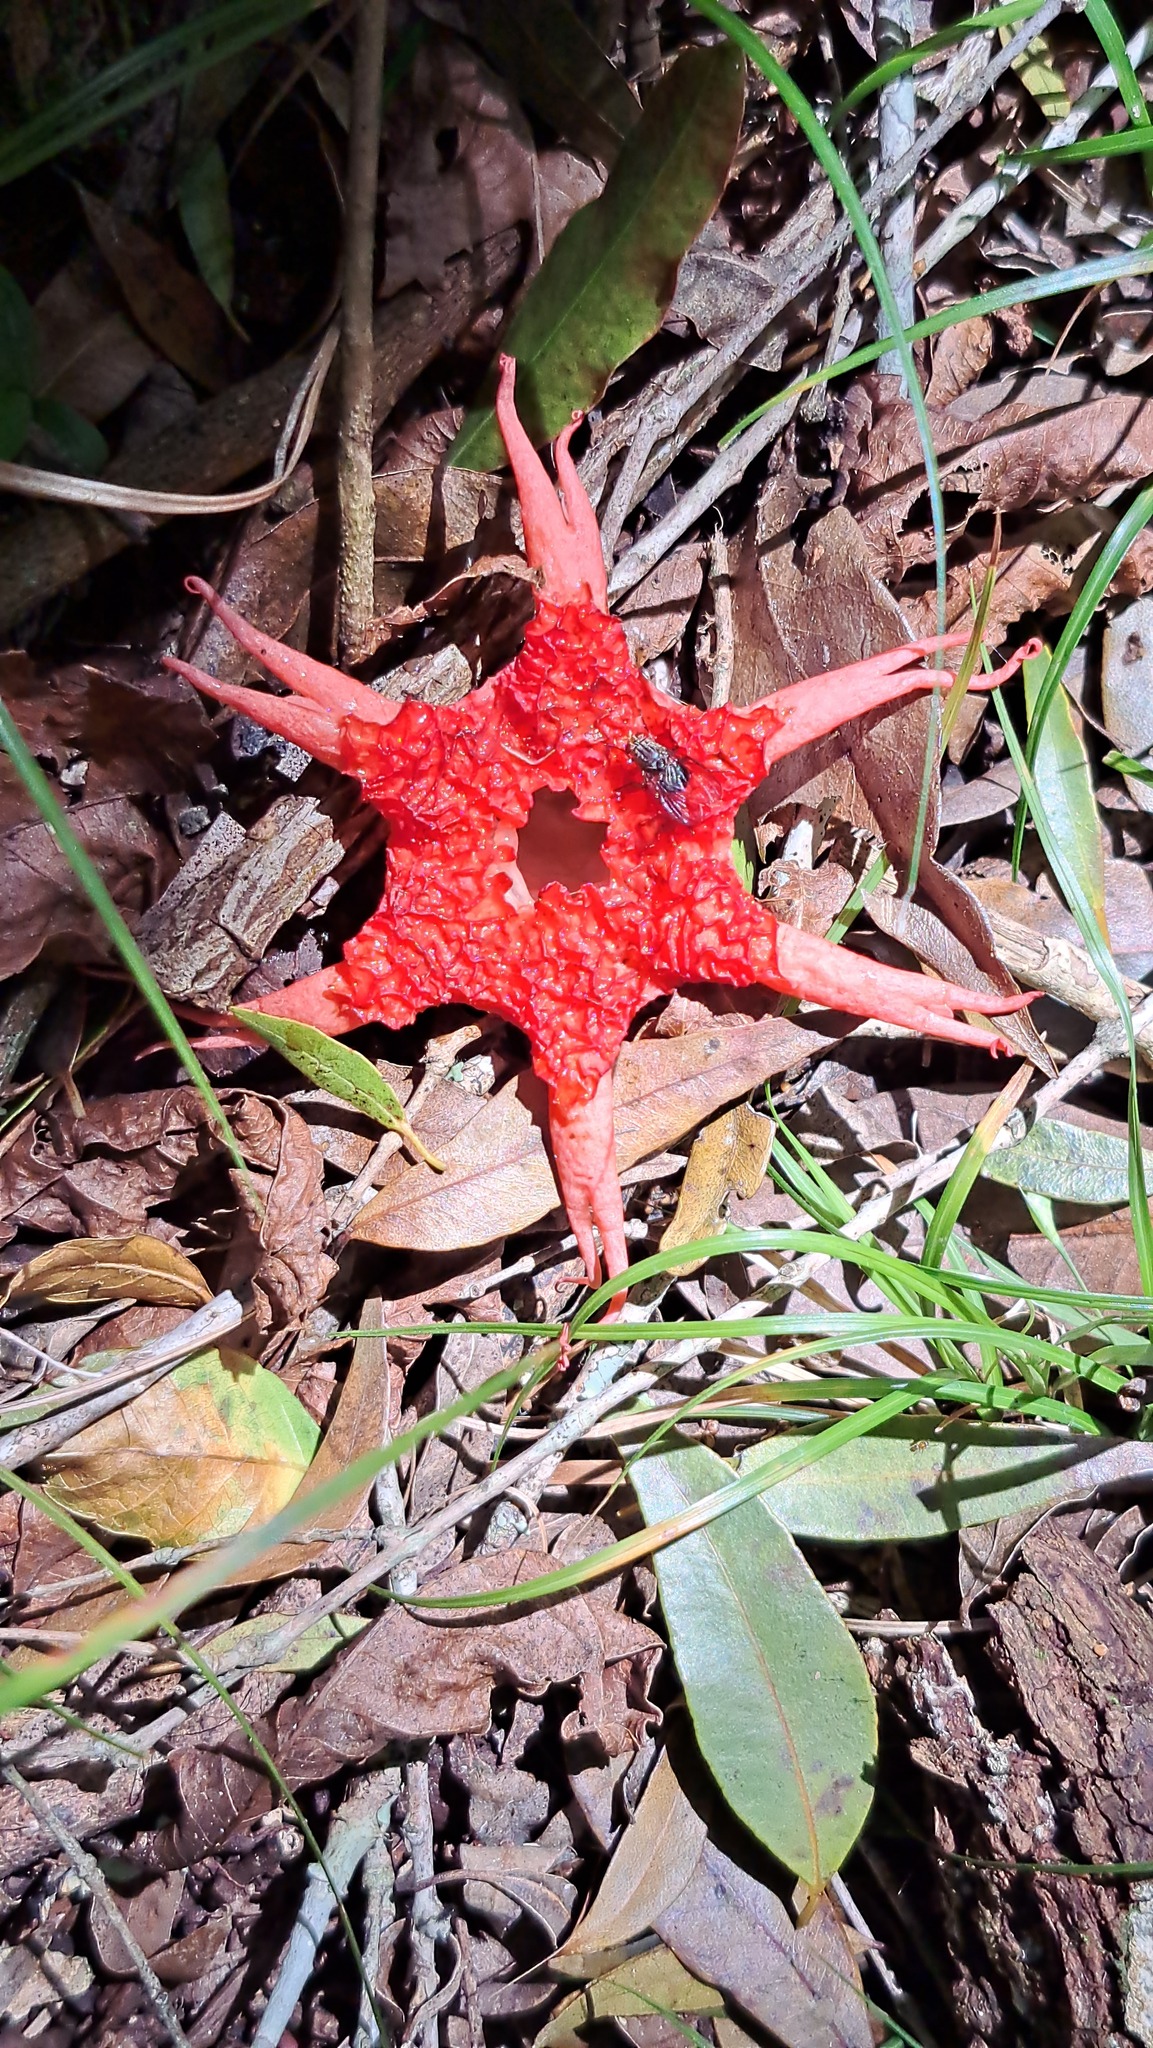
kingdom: Fungi
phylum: Basidiomycota
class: Agaricomycetes
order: Phallales
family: Phallaceae
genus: Aseroe
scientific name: Aseroe rubra
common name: Starfish fungus
